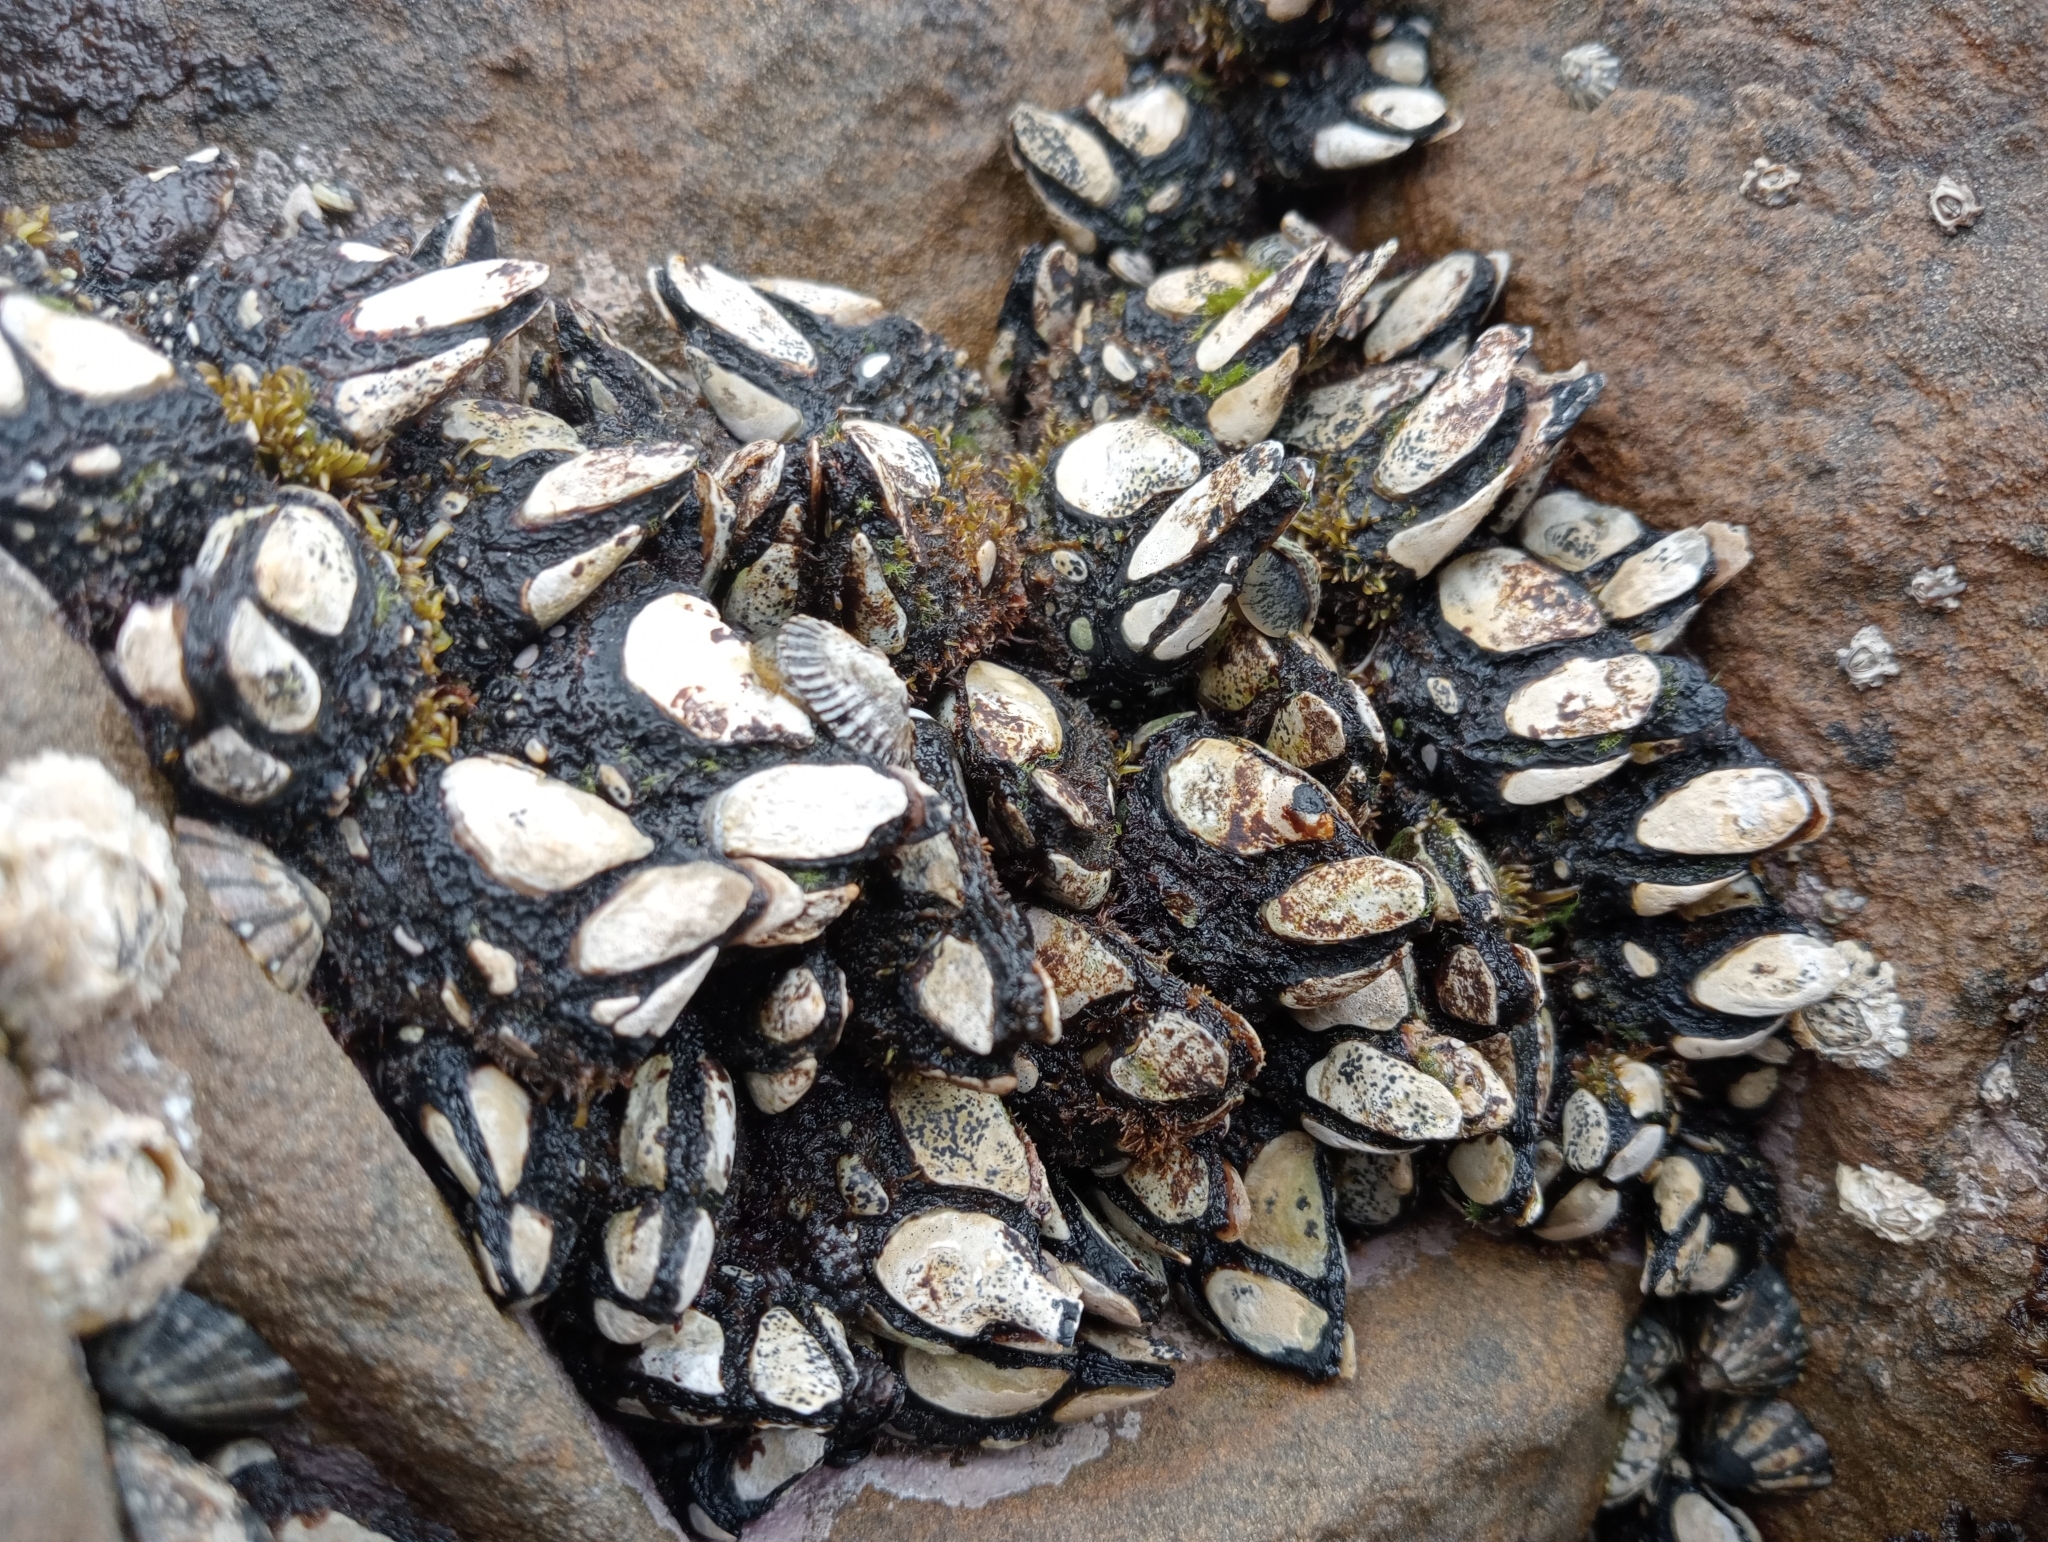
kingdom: Animalia
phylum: Arthropoda
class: Maxillopoda
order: Pedunculata
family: Calanticidae
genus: Calantica
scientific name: Calantica spinosa
